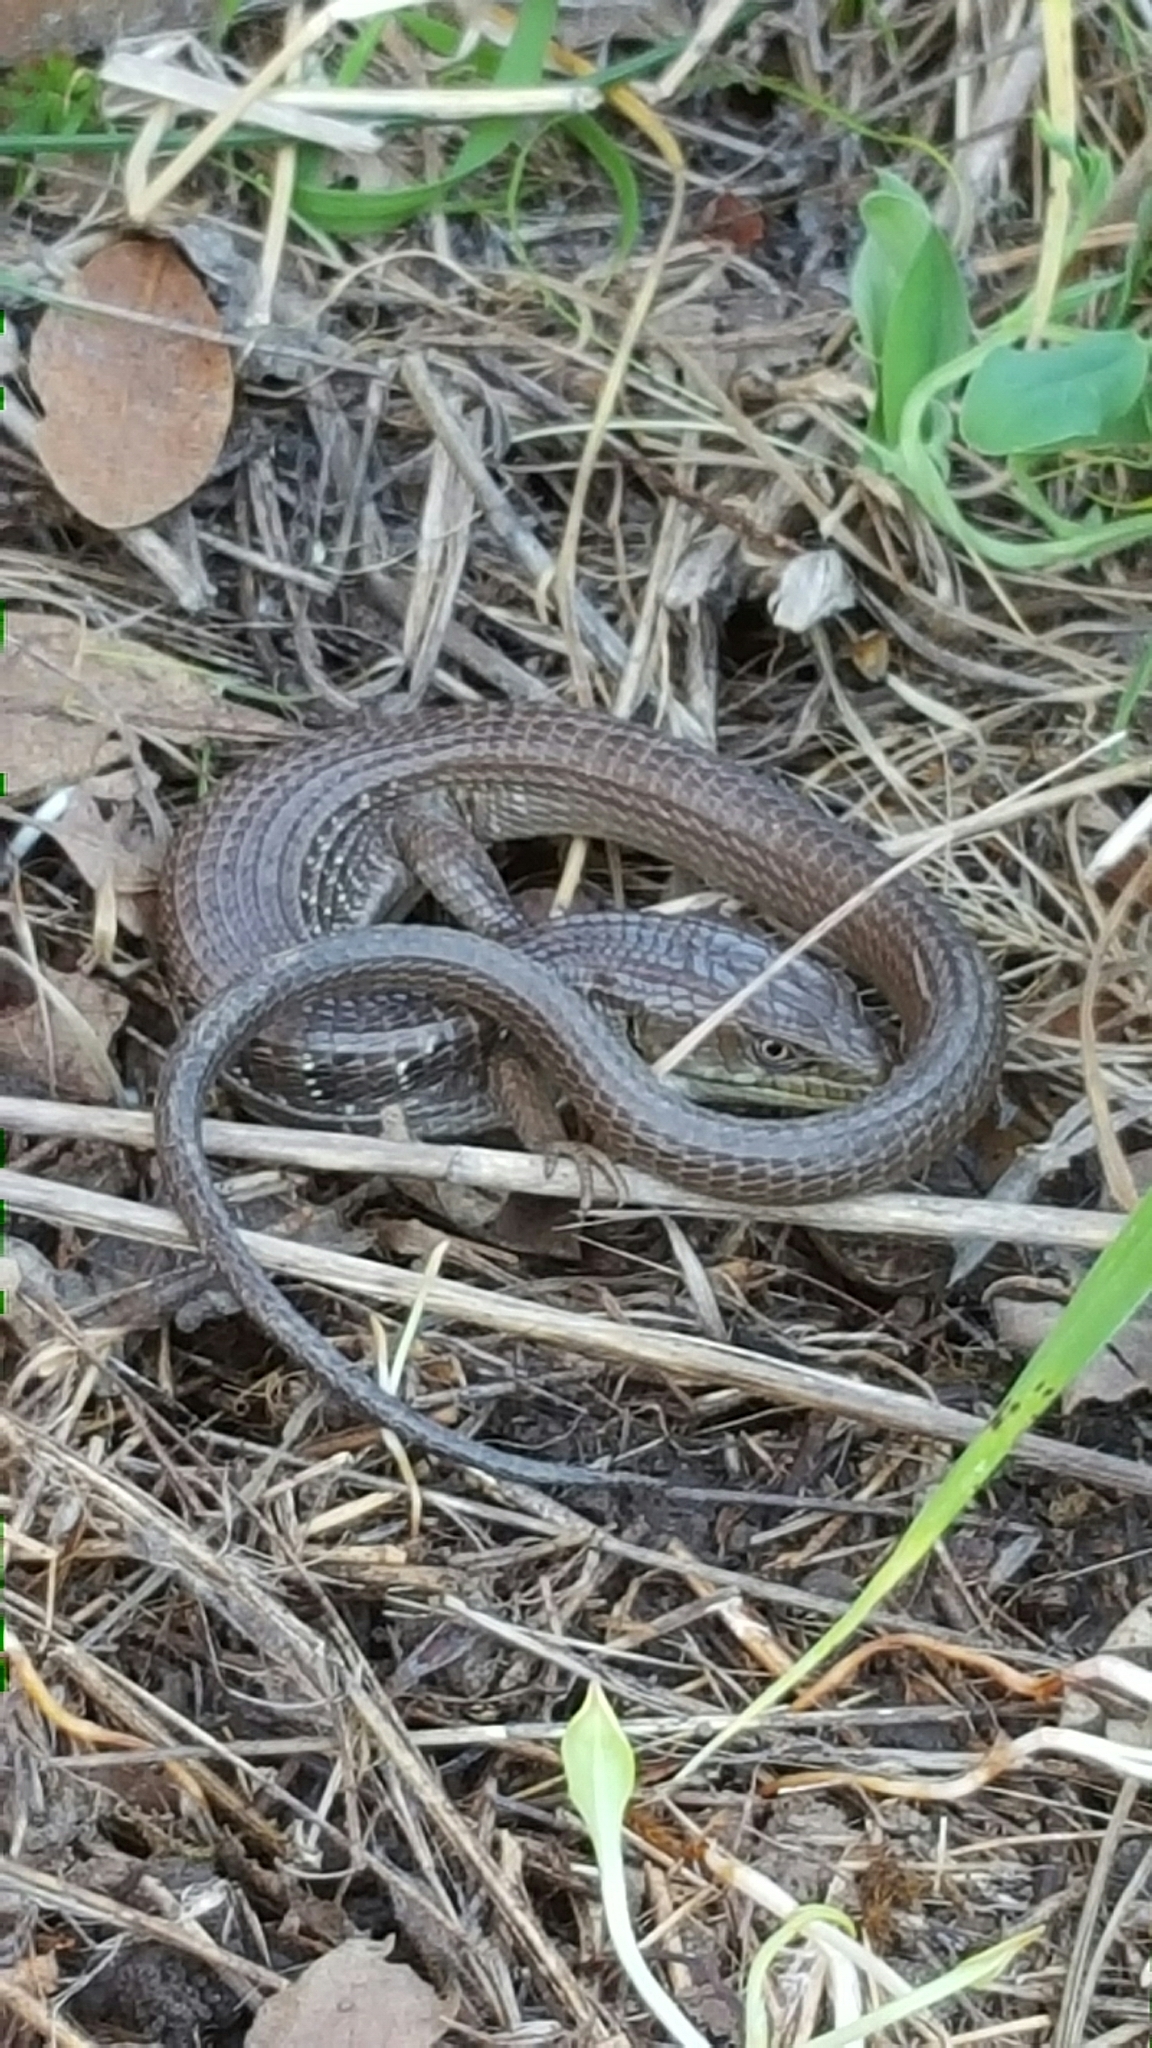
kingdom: Animalia
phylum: Chordata
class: Squamata
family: Anguidae
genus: Elgaria
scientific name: Elgaria multicarinata
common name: Southern alligator lizard
